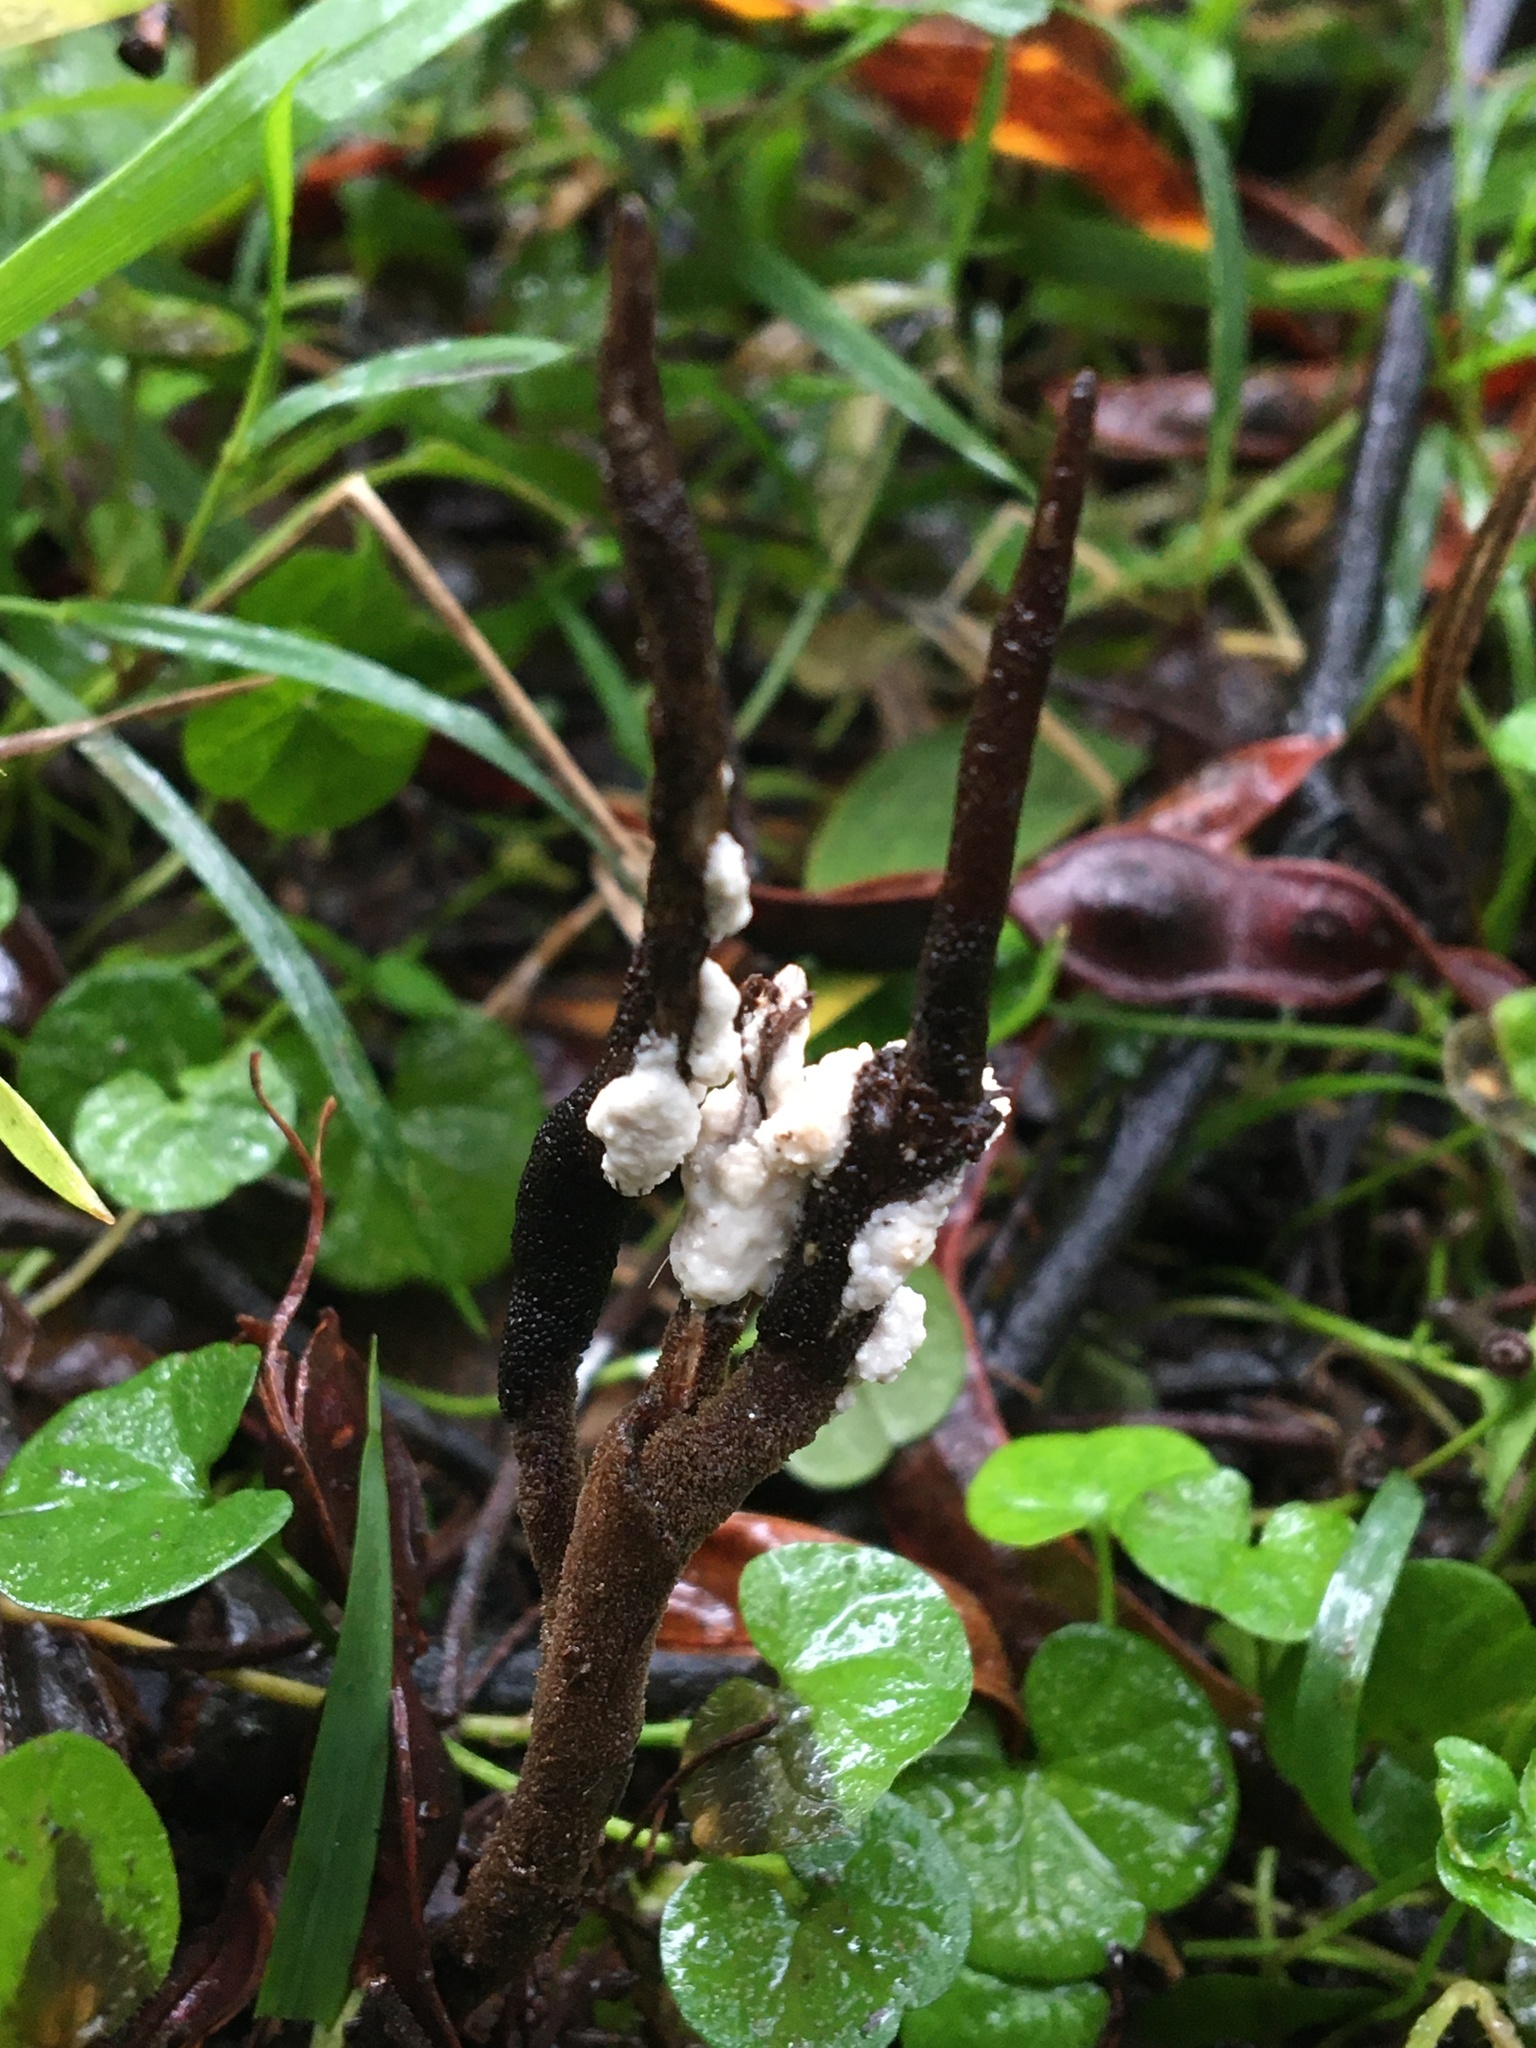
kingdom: Fungi
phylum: Ascomycota
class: Sordariomycetes
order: Hypocreales
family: Ophiocordycipitaceae
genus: Ophiocordyceps
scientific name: Ophiocordyceps robertsii
